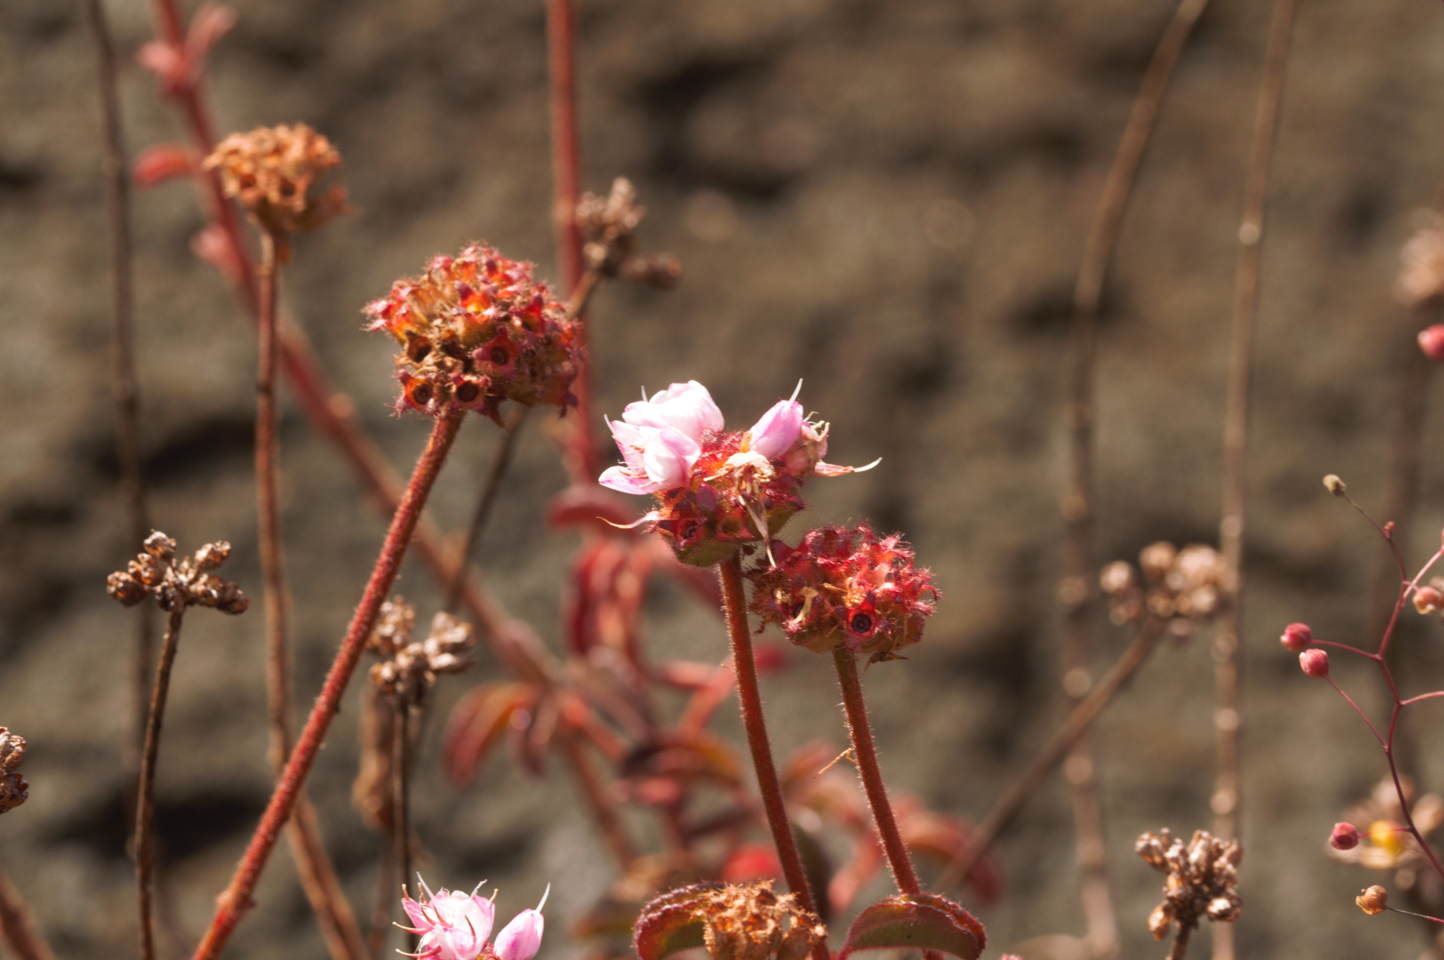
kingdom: Plantae
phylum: Tracheophyta
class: Magnoliopsida
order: Myrtales
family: Melastomataceae
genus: Ernestia
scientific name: Ernestia confertiflora
